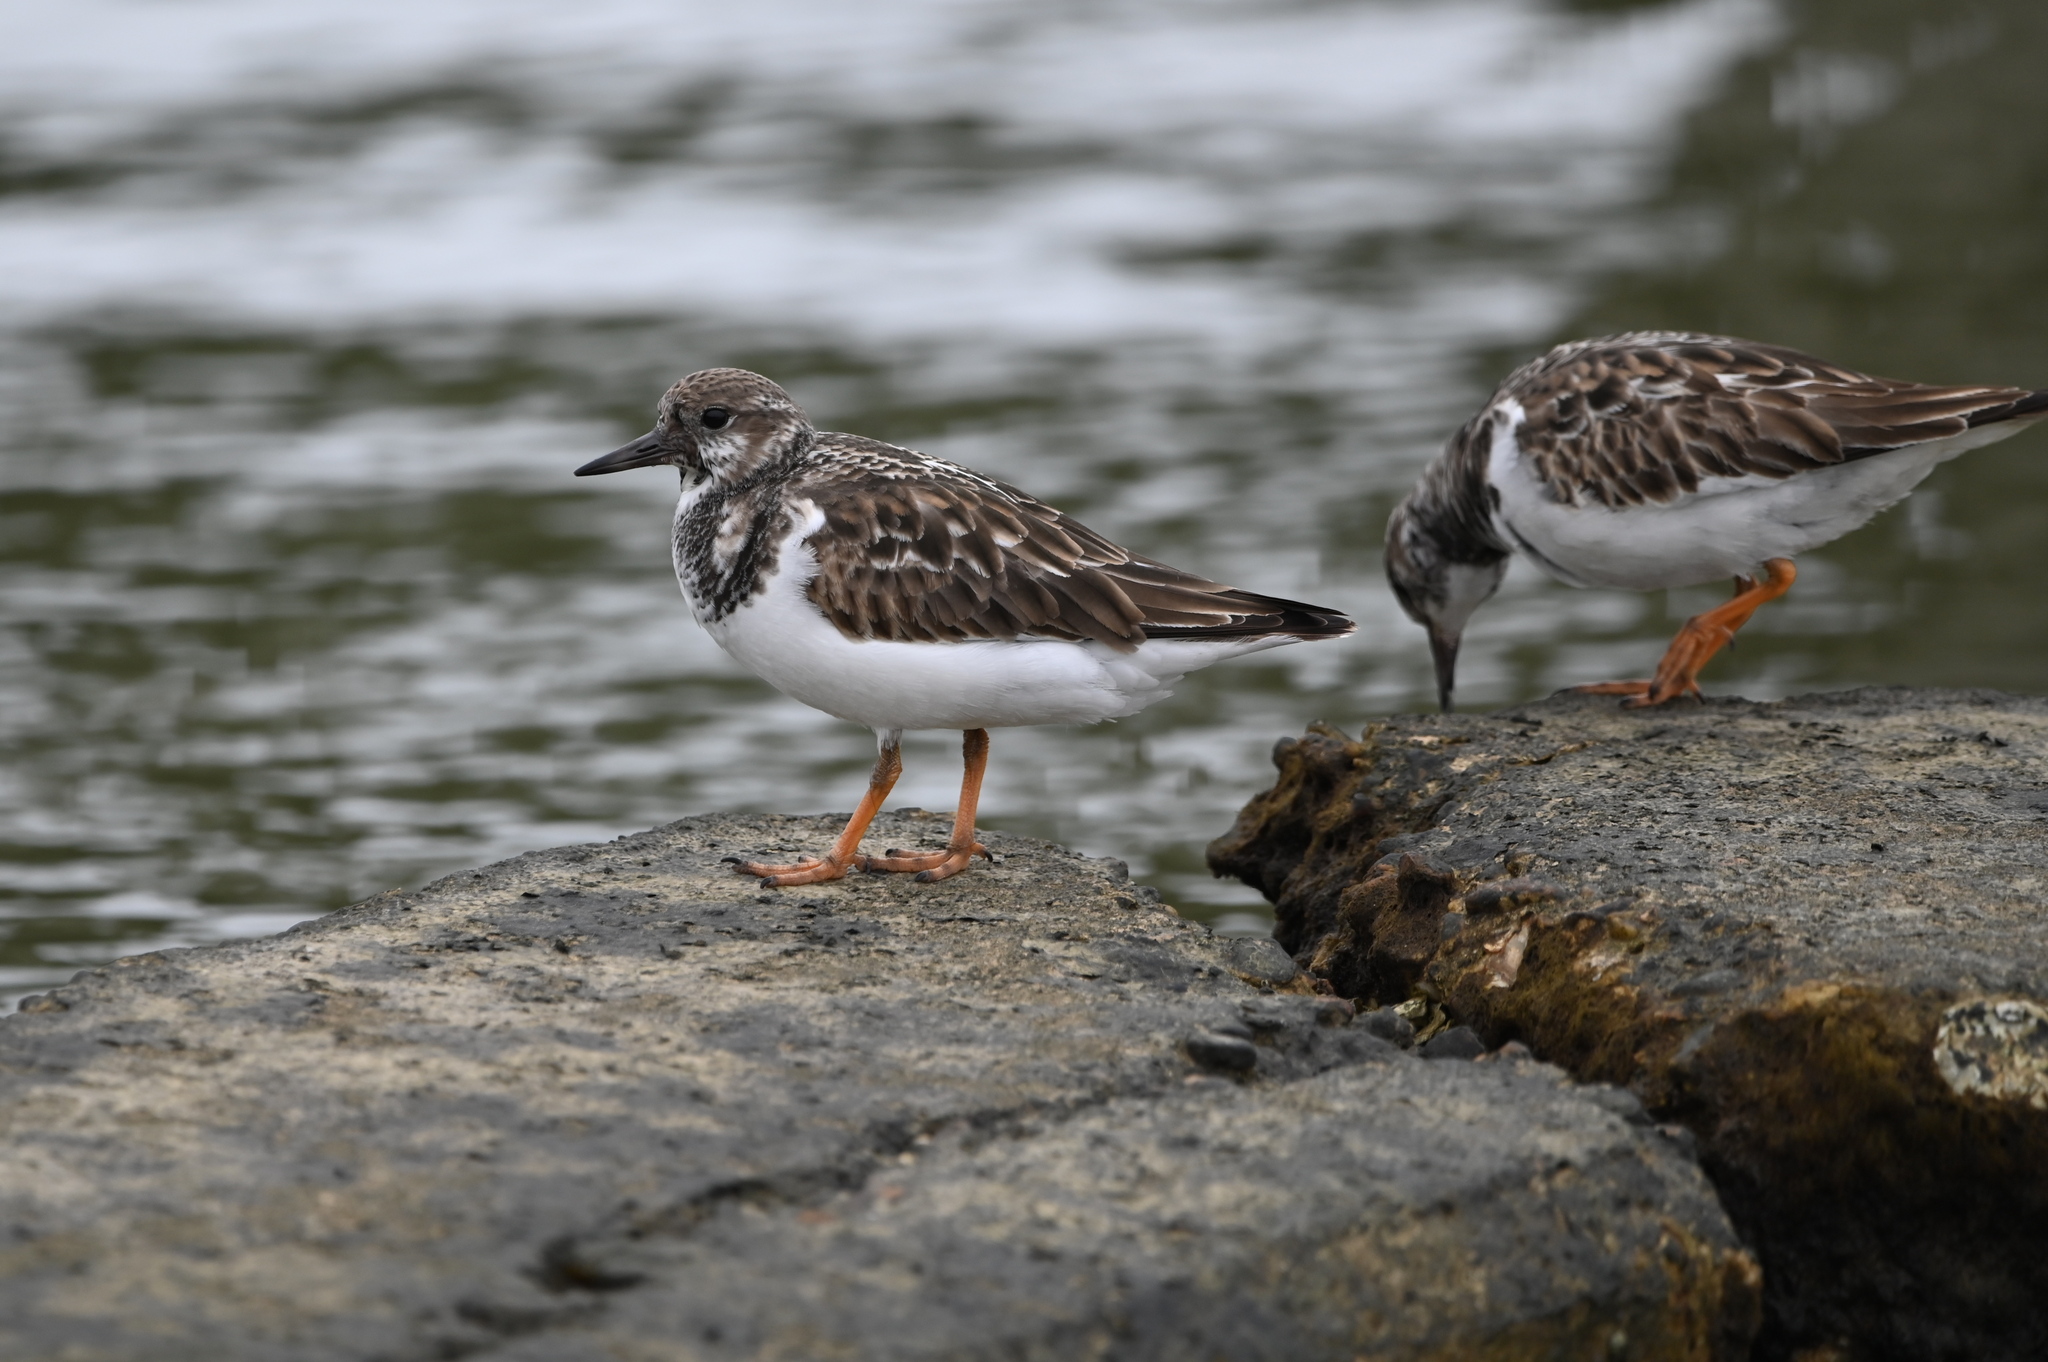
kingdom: Animalia
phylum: Chordata
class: Aves
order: Charadriiformes
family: Scolopacidae
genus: Arenaria
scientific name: Arenaria interpres
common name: Ruddy turnstone
